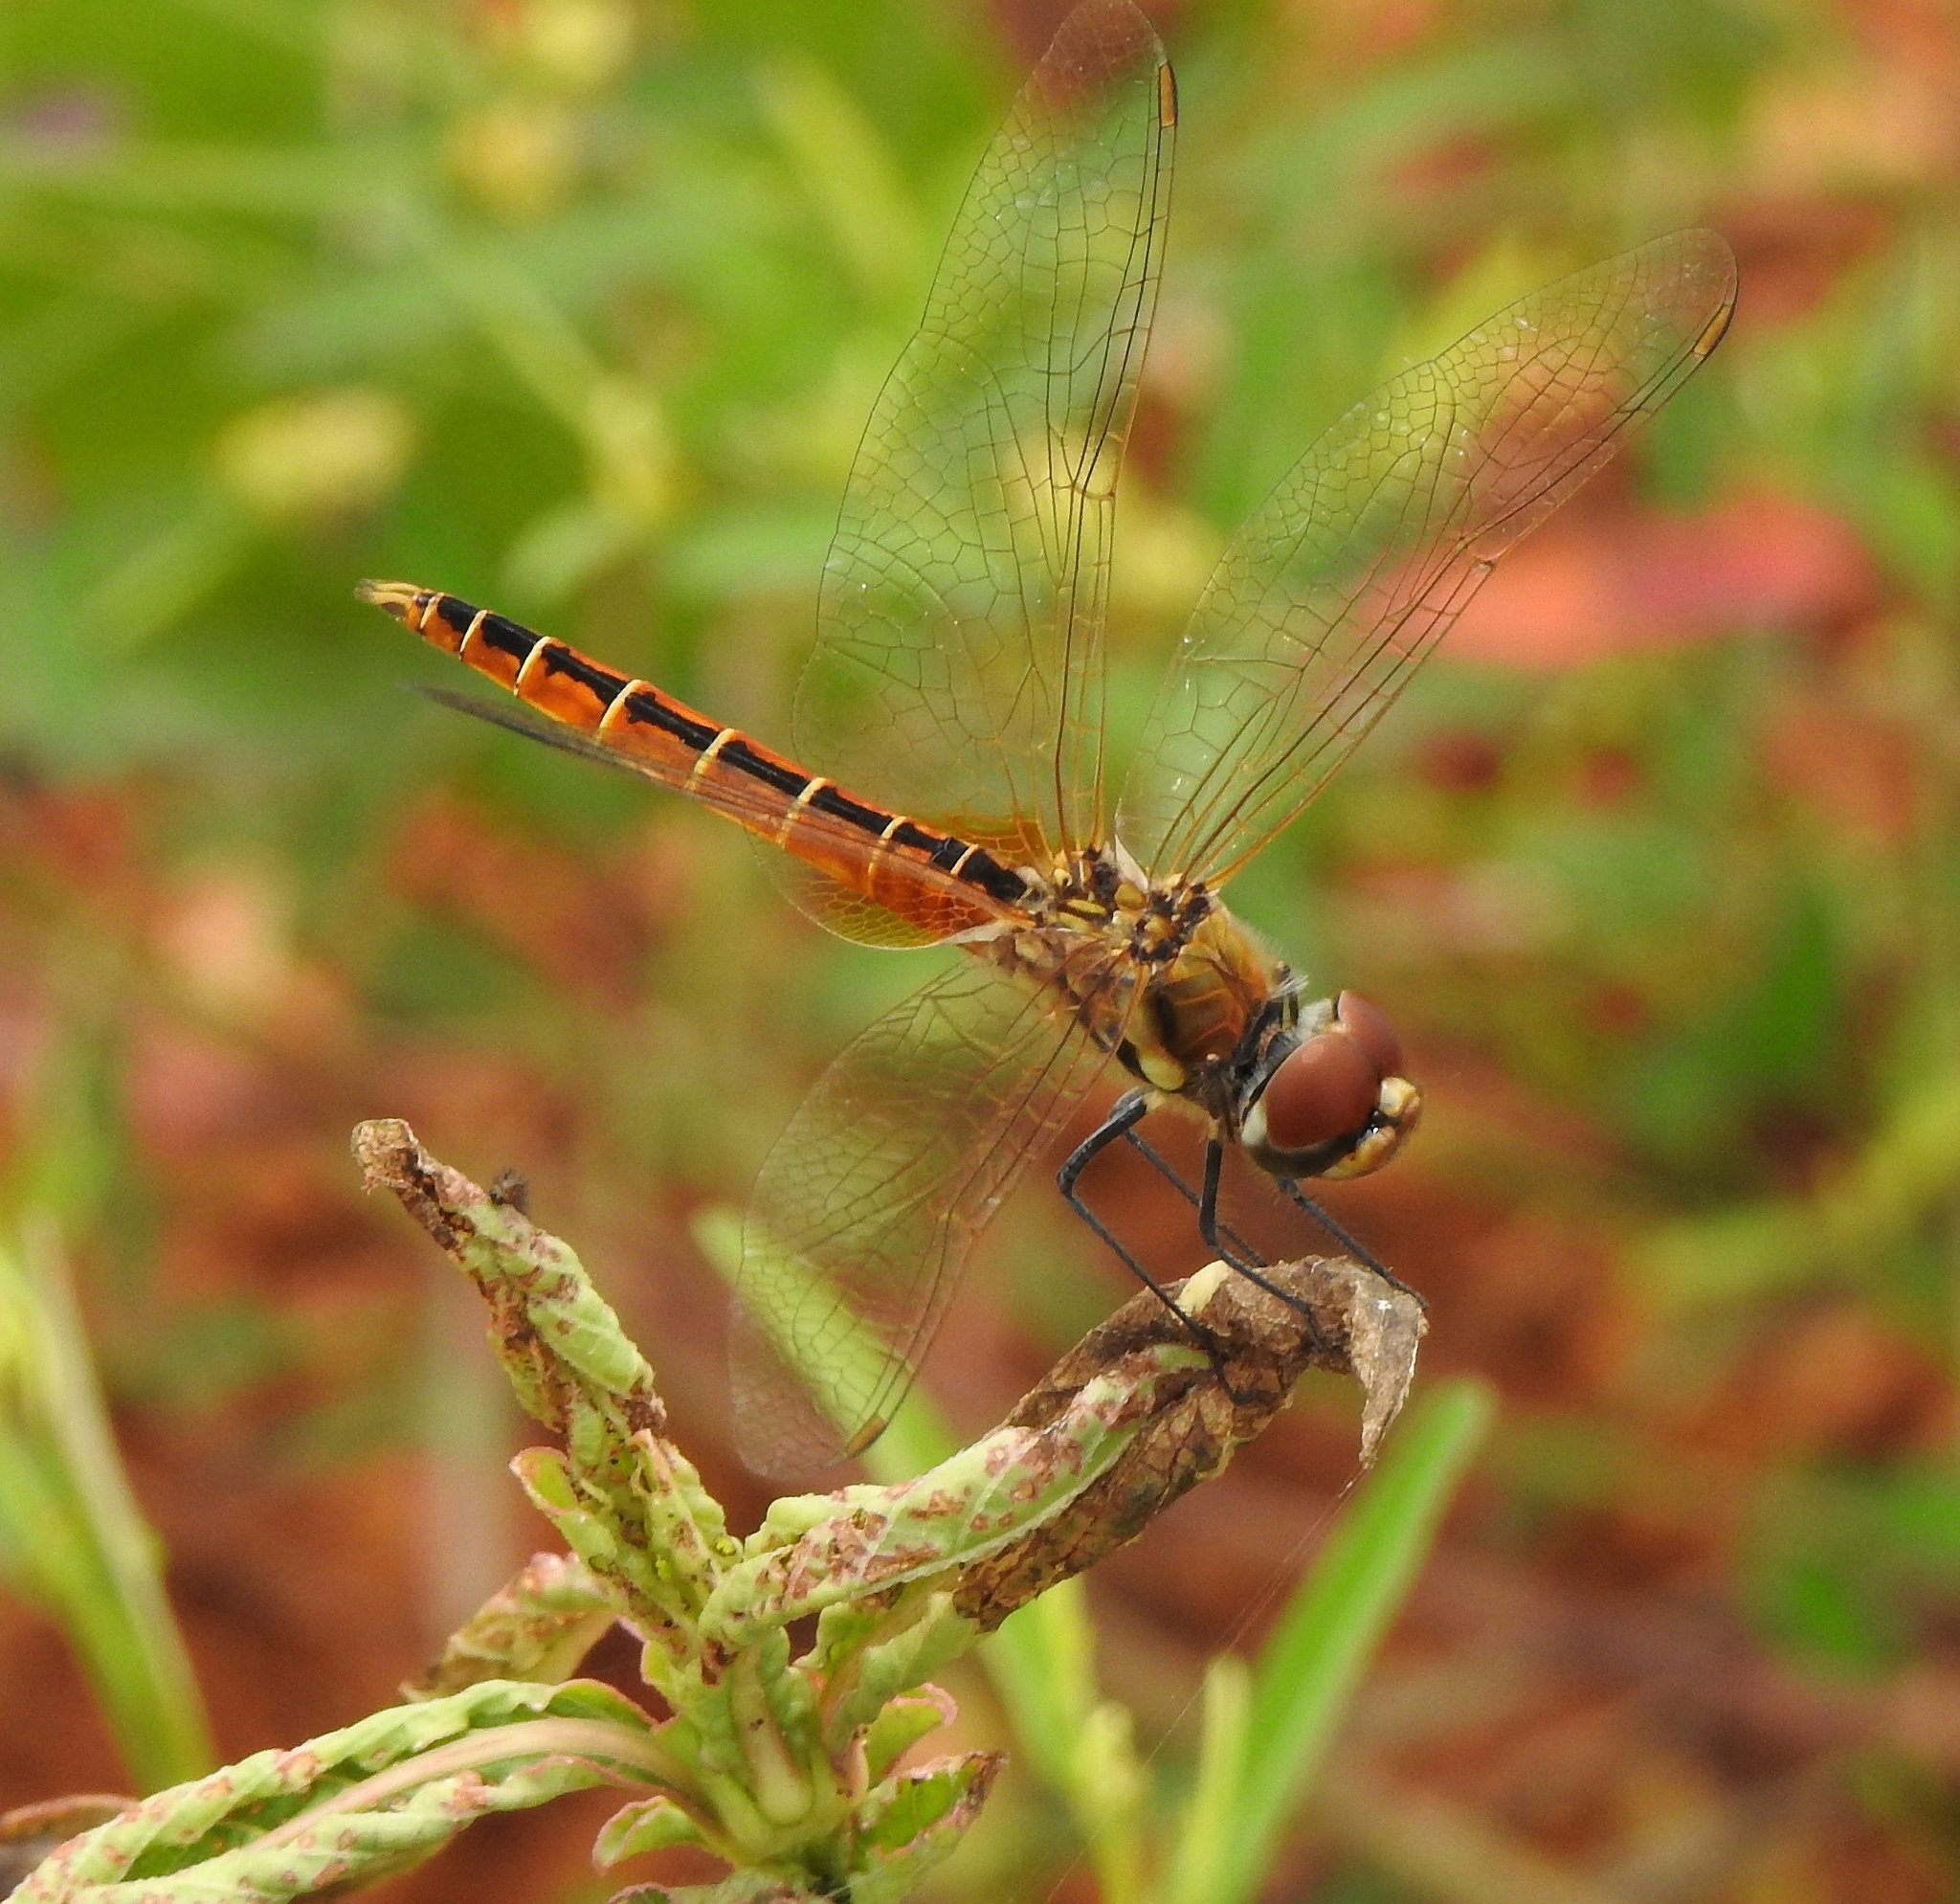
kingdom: Animalia
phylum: Arthropoda
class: Insecta
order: Odonata
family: Libellulidae
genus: Macrodiplax
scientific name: Macrodiplax cora
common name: Coastal glider
